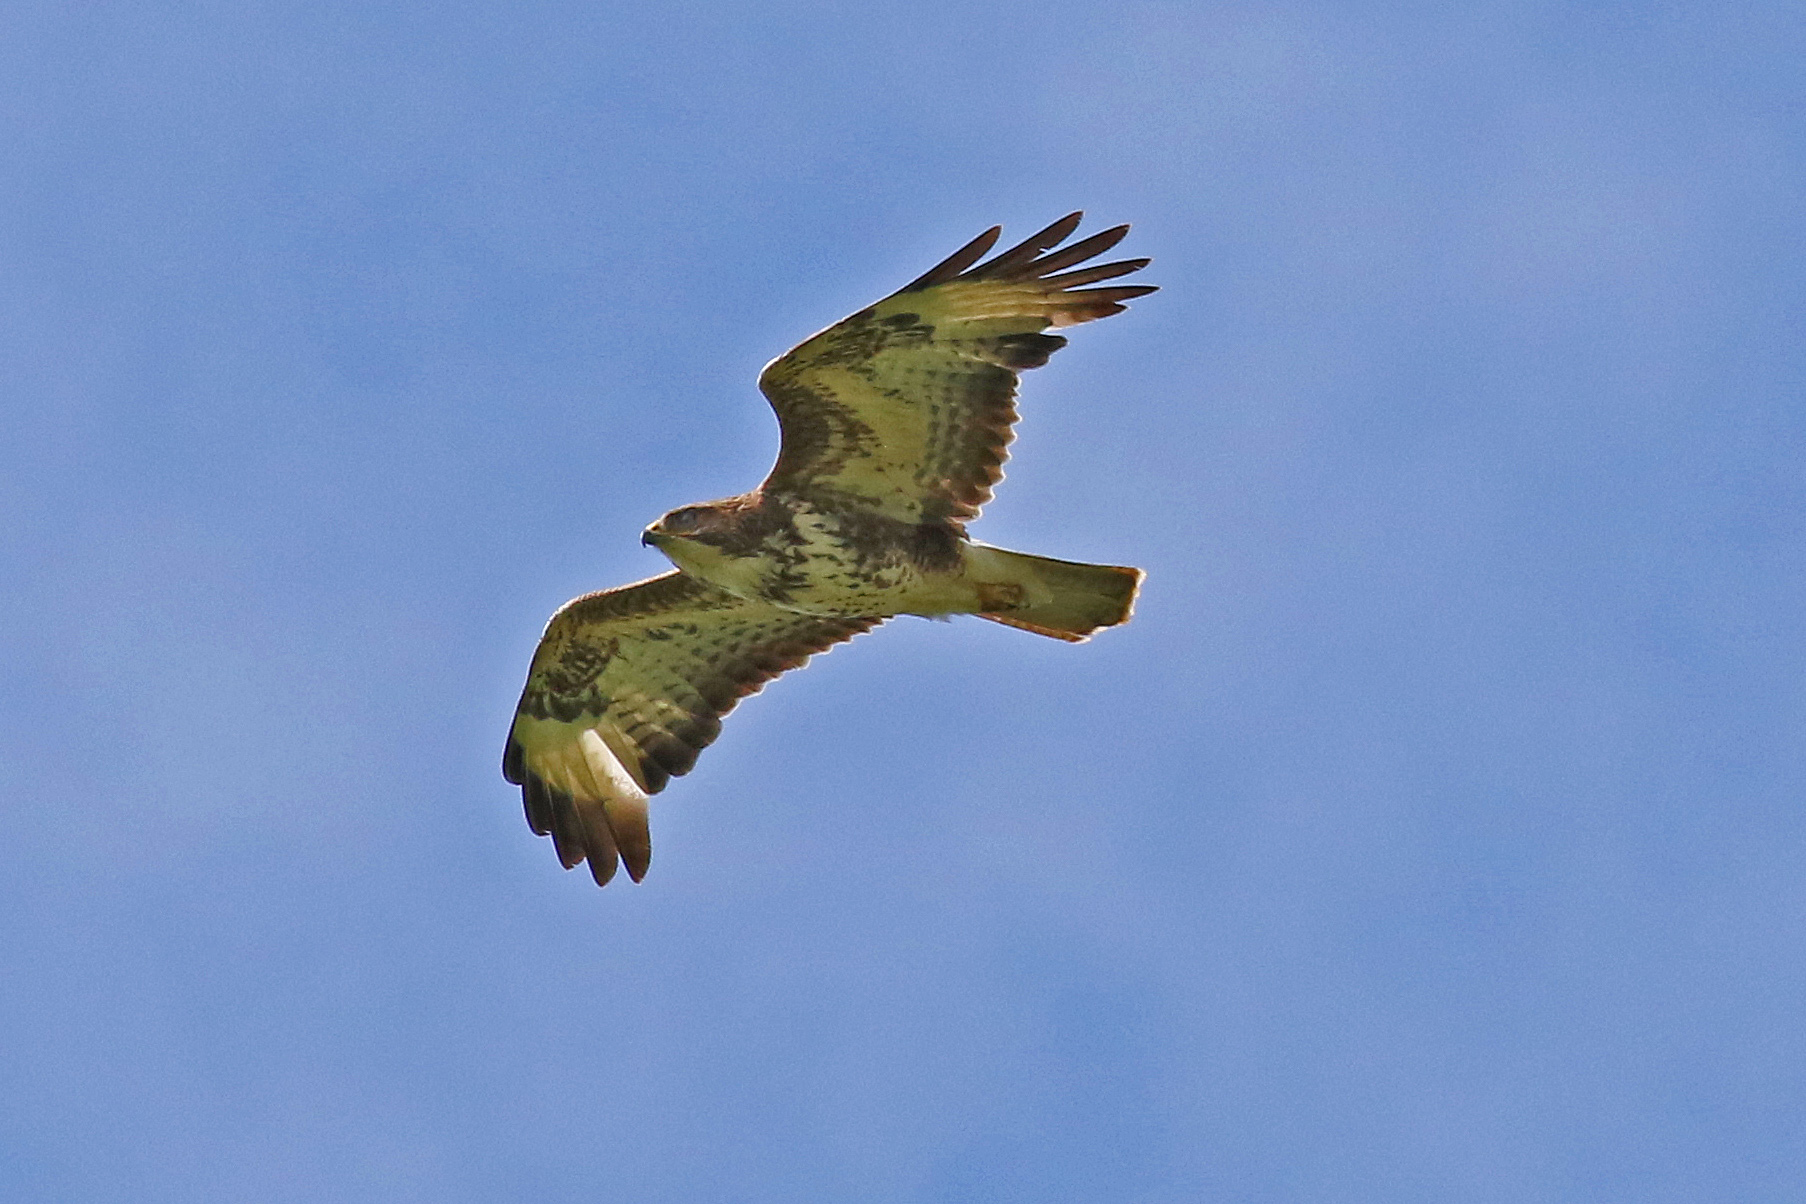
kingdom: Animalia
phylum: Chordata
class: Aves
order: Accipitriformes
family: Accipitridae
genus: Buteo
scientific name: Buteo buteo
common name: Common buzzard
